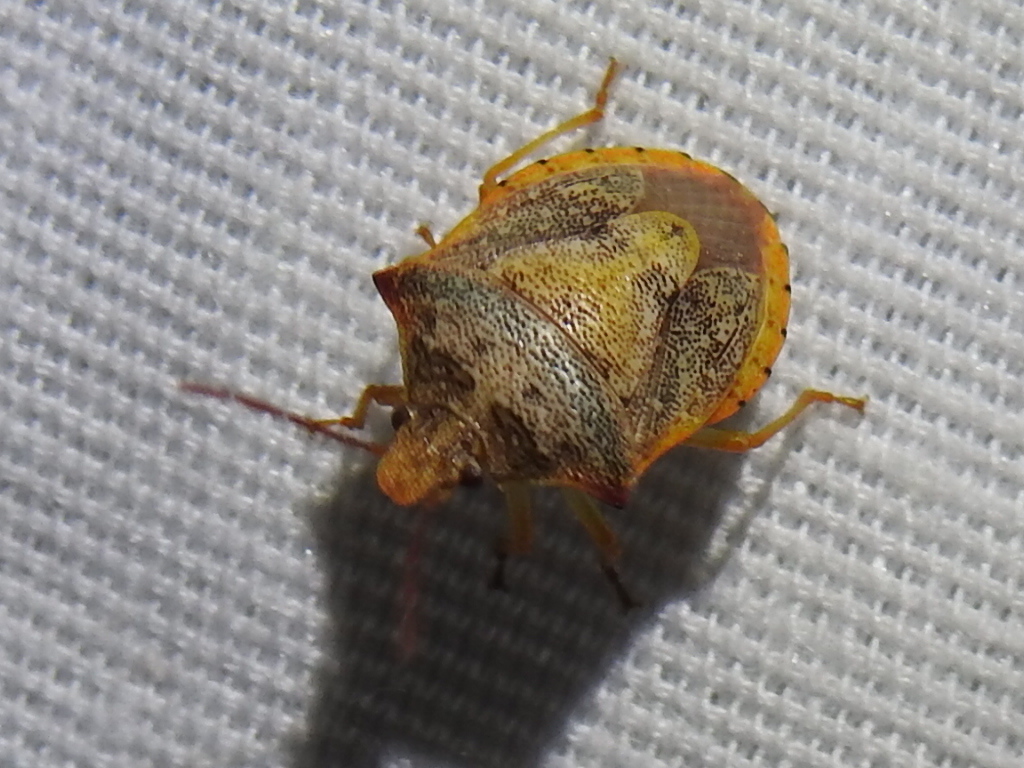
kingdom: Animalia
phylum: Arthropoda
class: Insecta
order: Hemiptera
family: Pentatomidae
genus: Dendrocoris
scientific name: Dendrocoris humeralis
